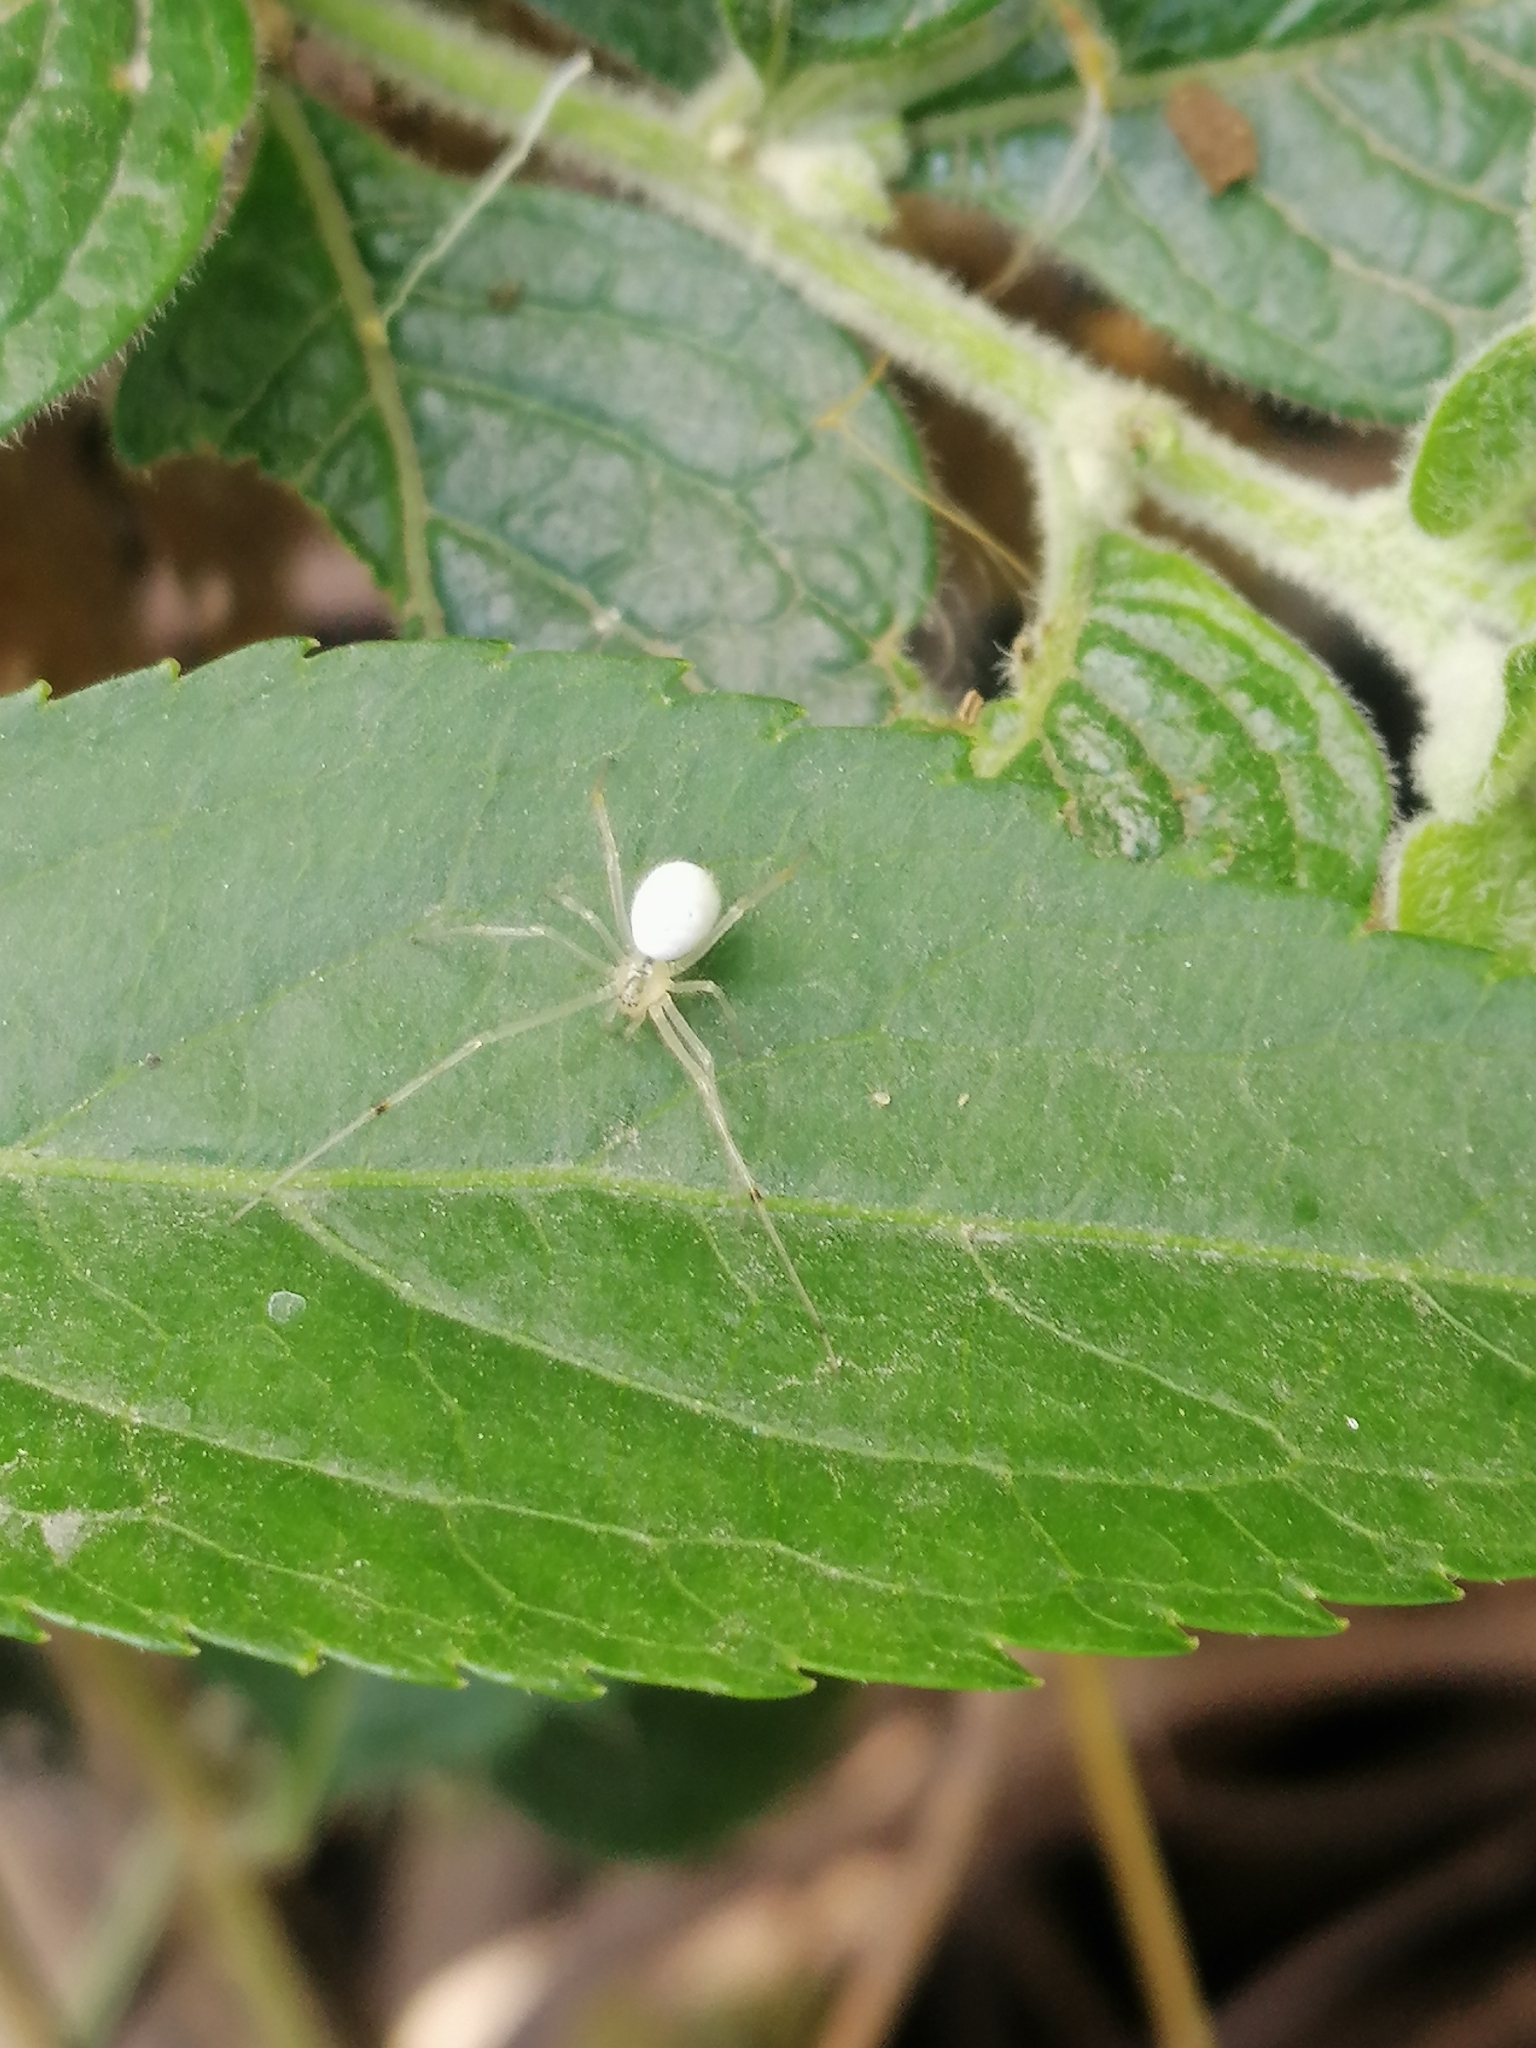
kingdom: Animalia
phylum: Arthropoda
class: Arachnida
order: Araneae
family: Theridiidae
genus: Theridion
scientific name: Theridion calcynatum
